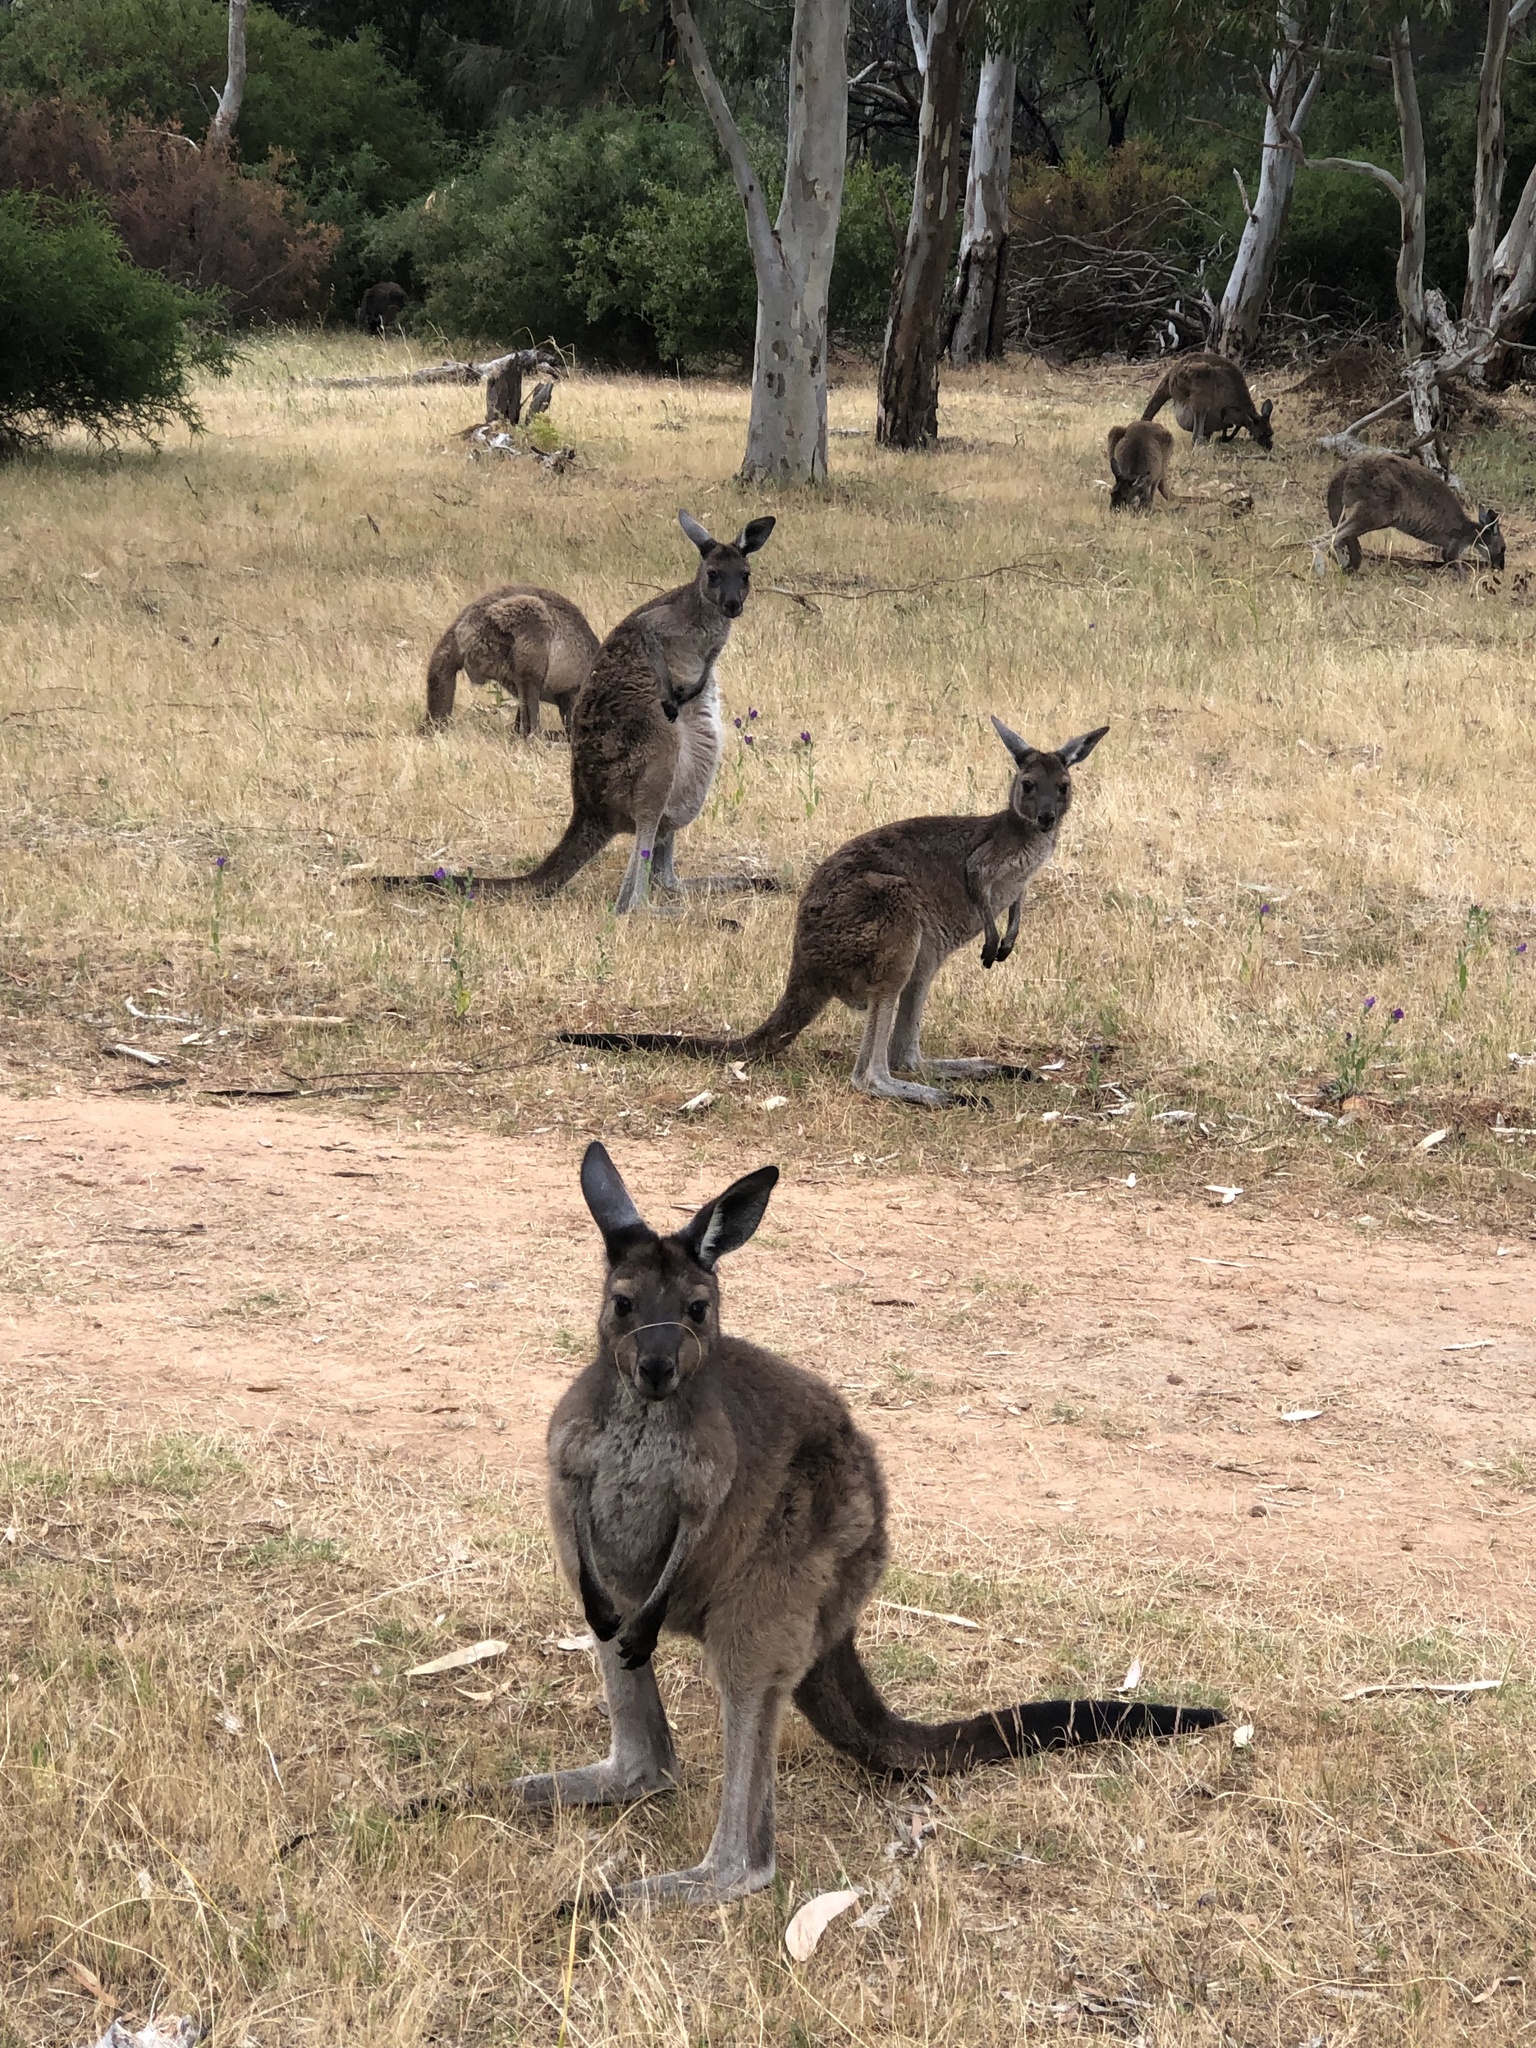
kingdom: Animalia
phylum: Chordata
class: Mammalia
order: Diprotodontia
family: Macropodidae
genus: Macropus
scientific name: Macropus fuliginosus
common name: Western grey kangaroo
